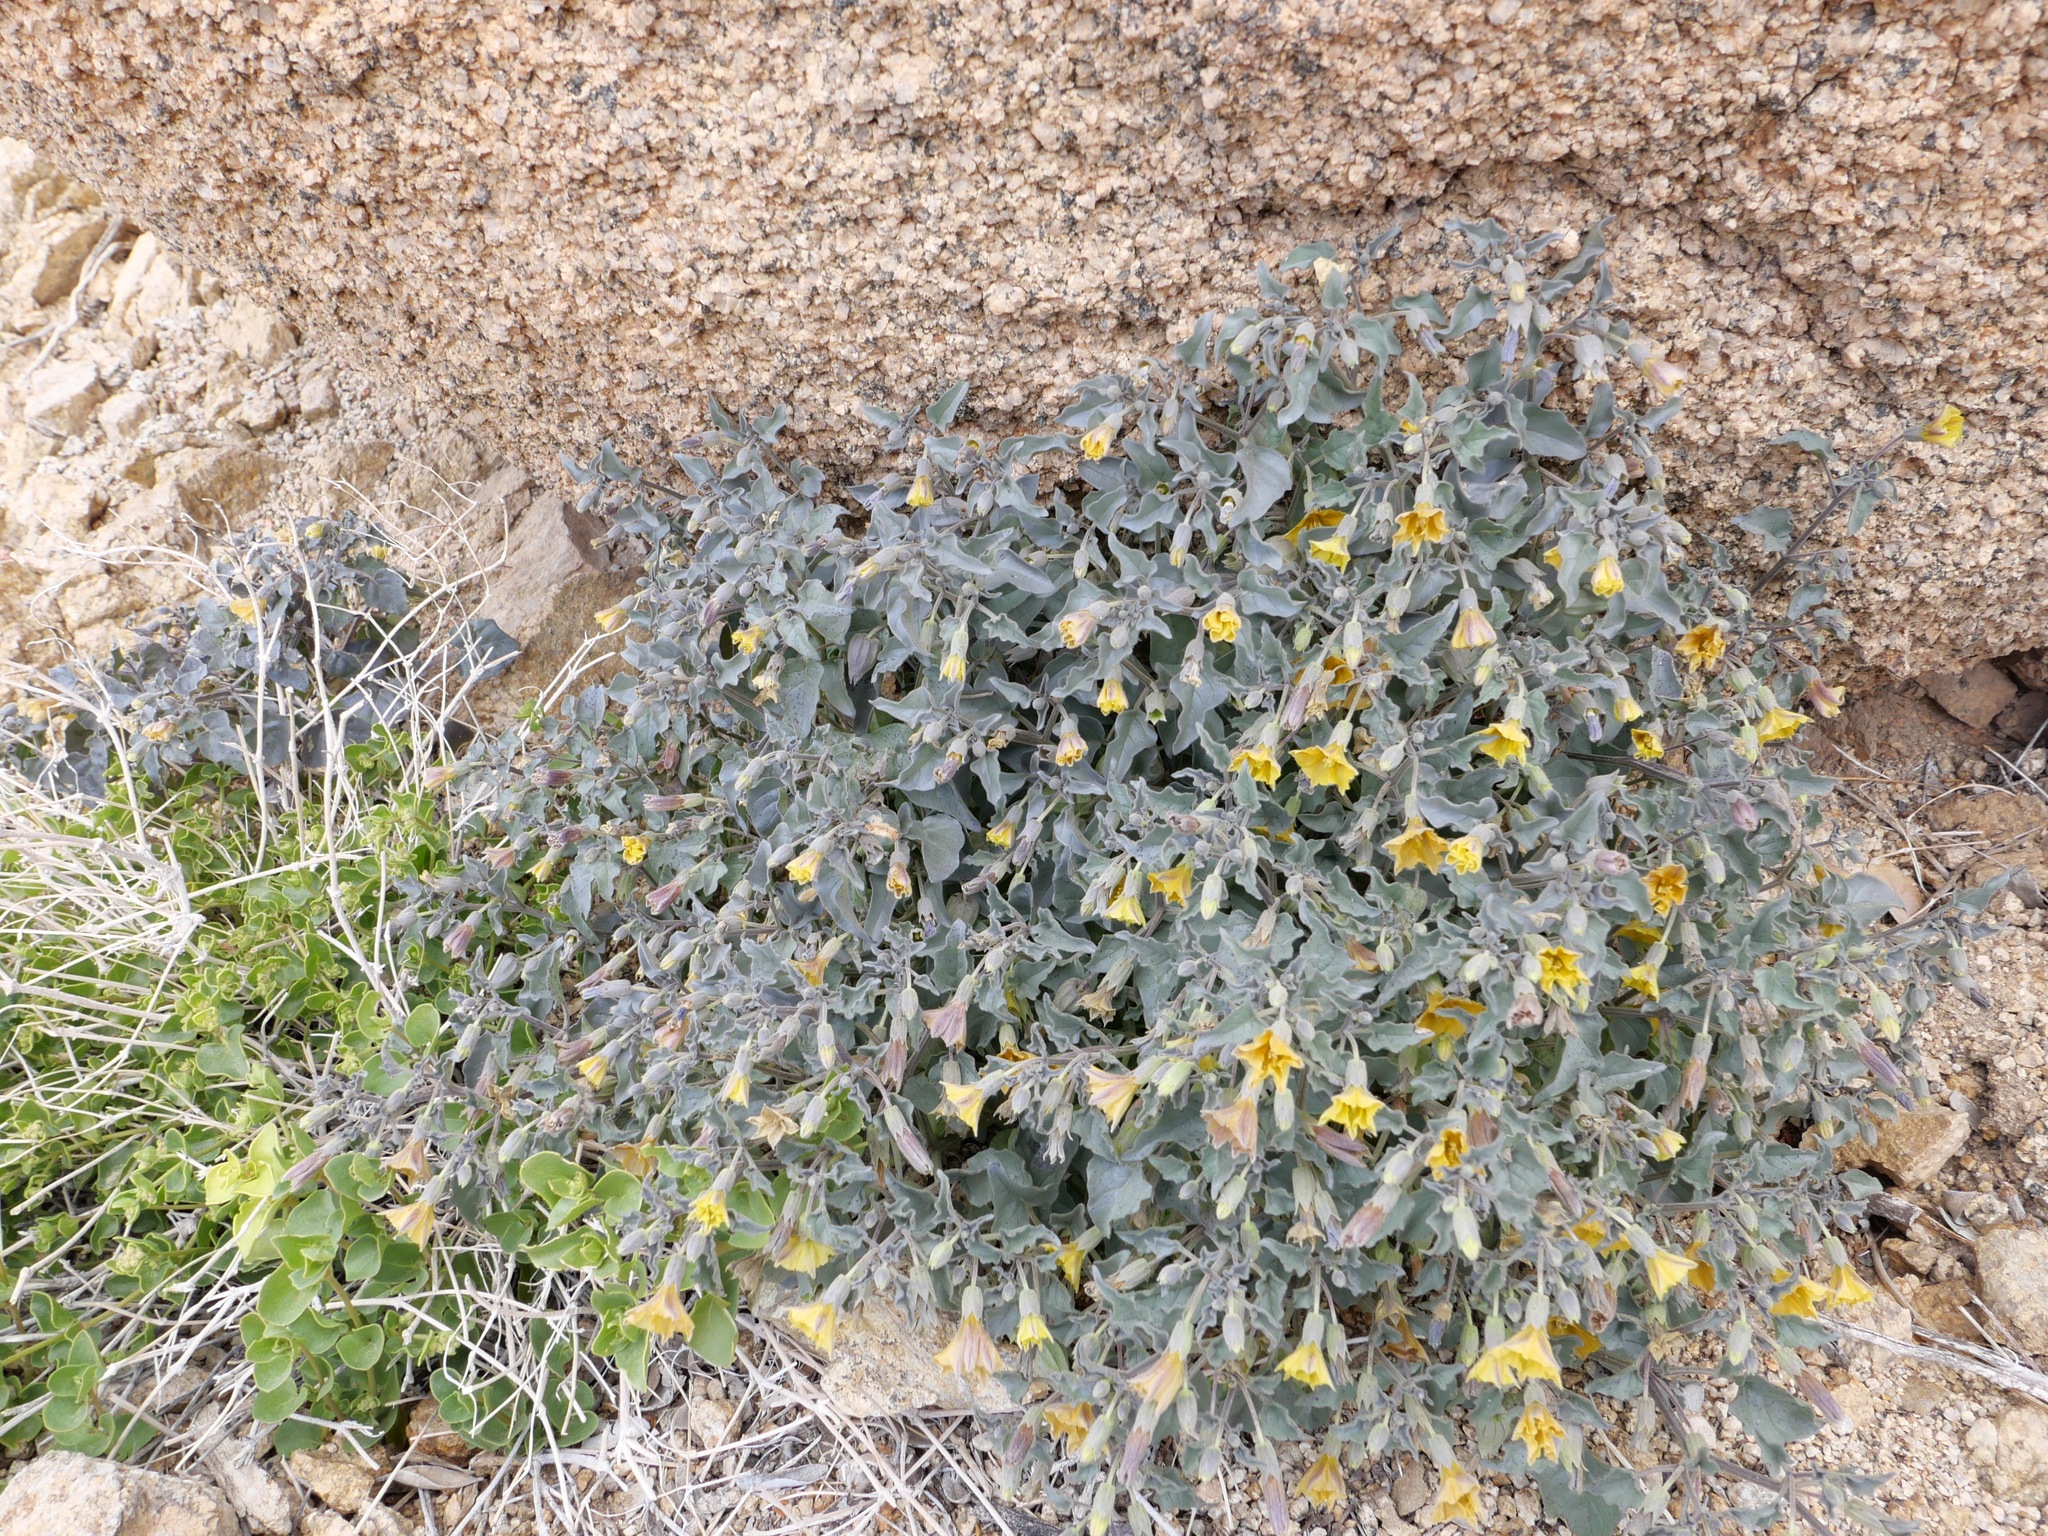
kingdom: Plantae
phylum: Tracheophyta
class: Magnoliopsida
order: Solanales
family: Solanaceae
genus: Physalis
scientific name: Physalis crassifolia
